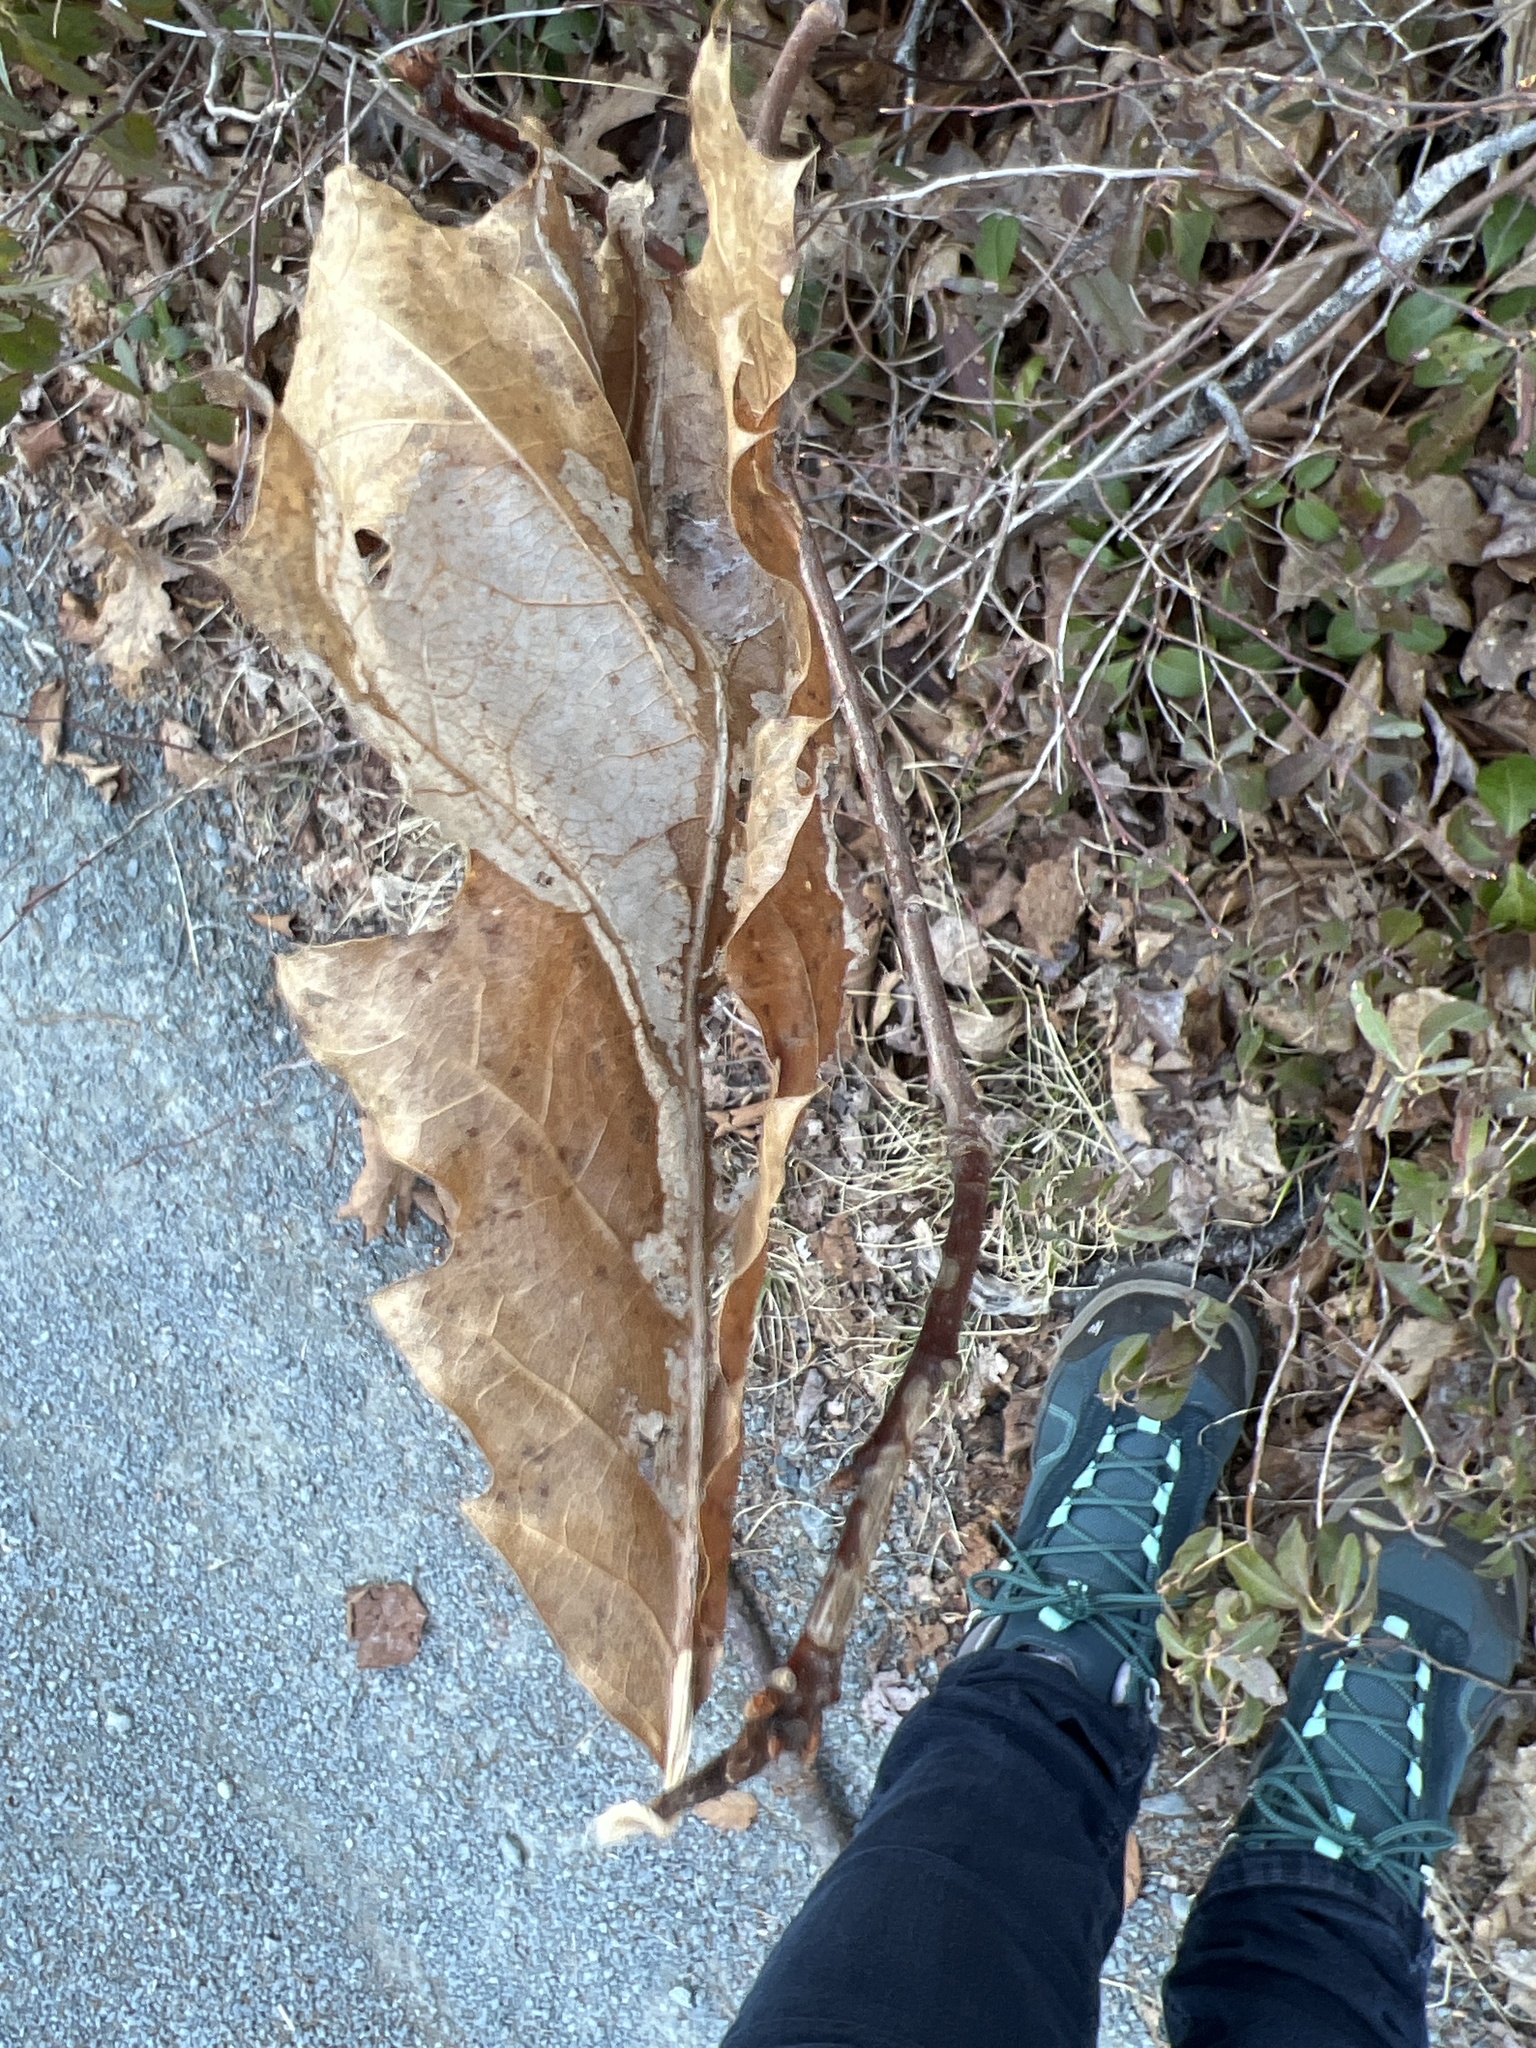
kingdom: Plantae
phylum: Tracheophyta
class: Magnoliopsida
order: Fagales
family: Fagaceae
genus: Quercus
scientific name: Quercus rubra
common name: Red oak
